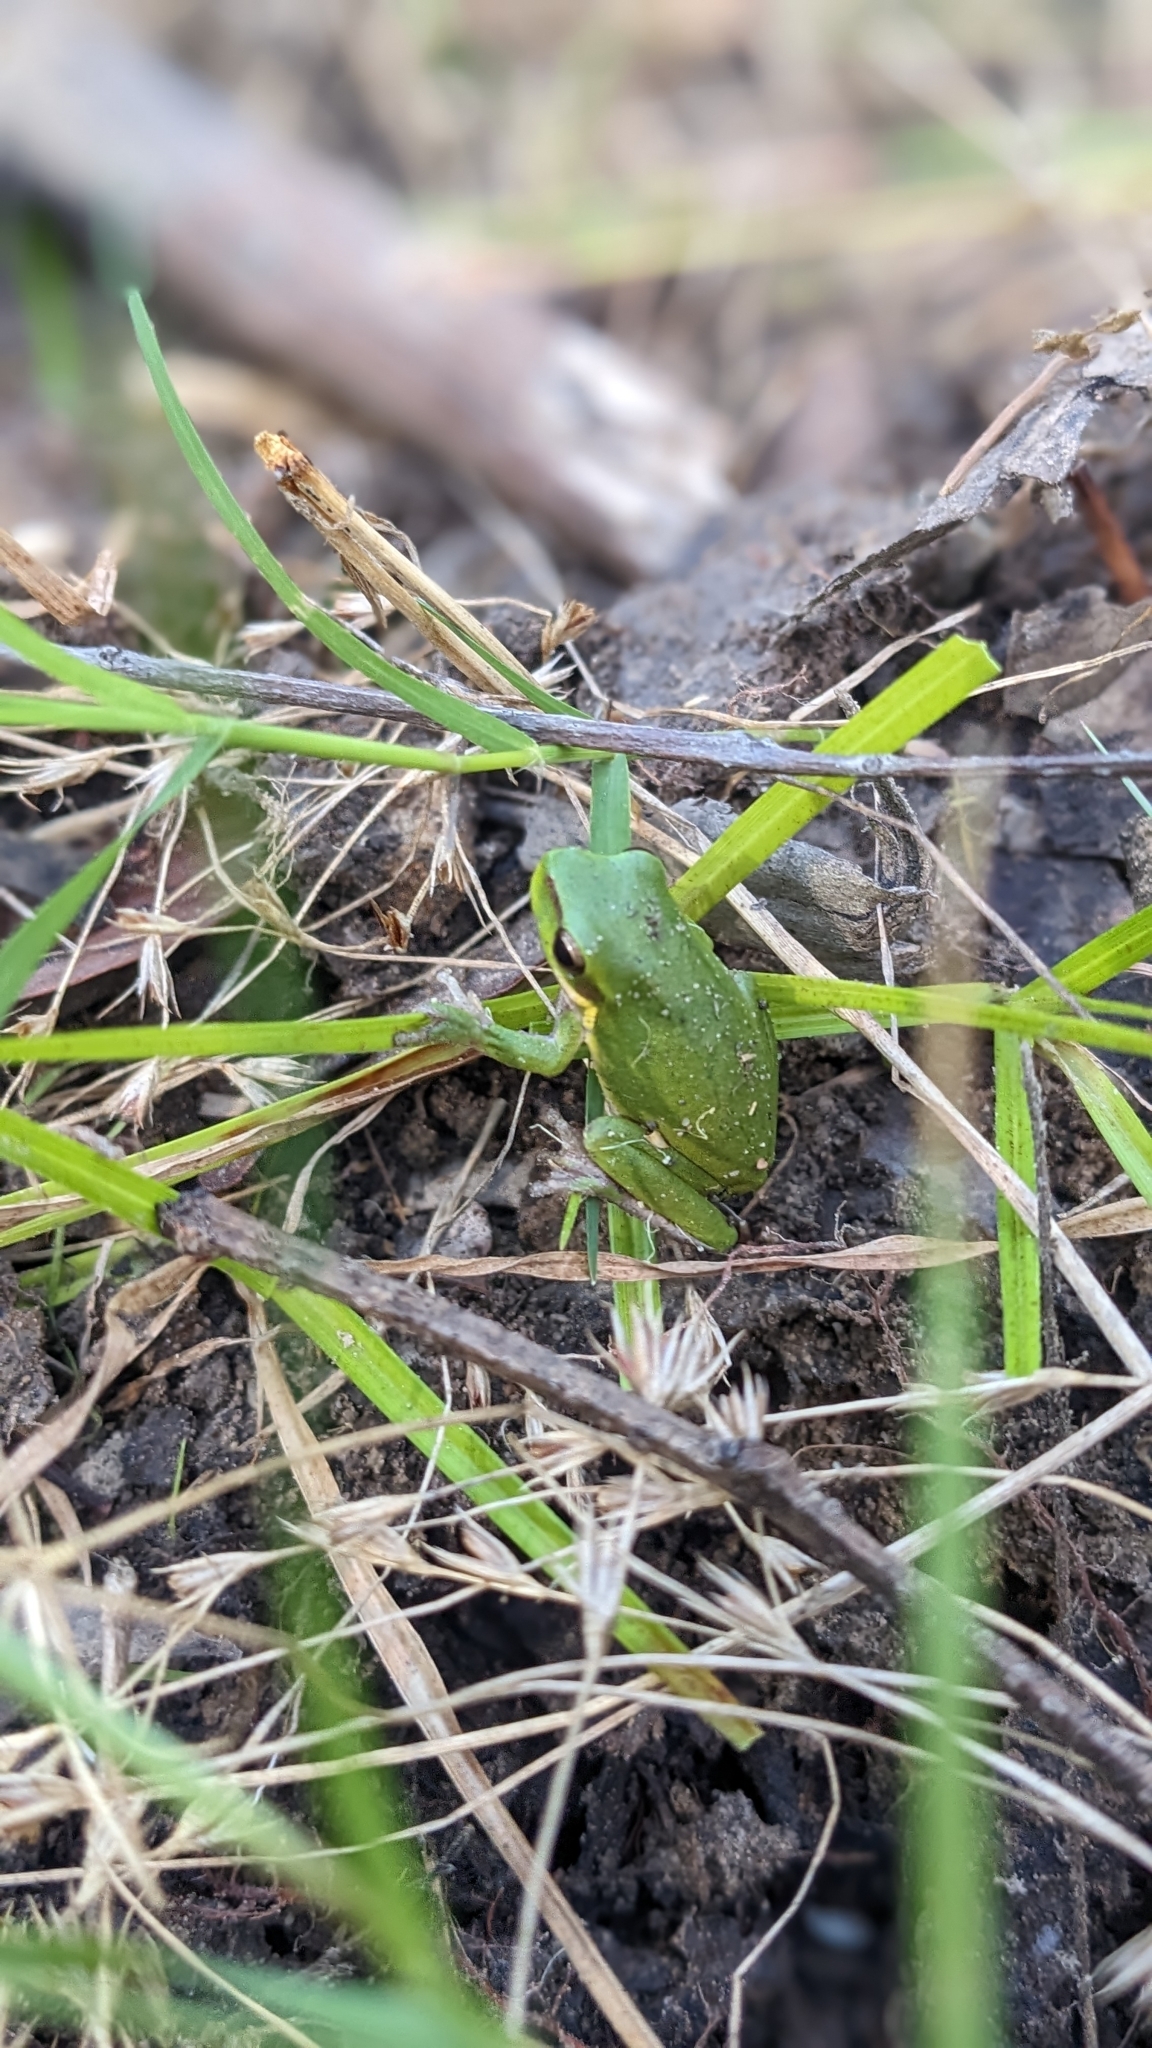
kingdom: Animalia
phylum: Chordata
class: Amphibia
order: Anura
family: Pelodryadidae
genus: Litoria
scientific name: Litoria fallax
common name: Eastern dwarf treefrog
